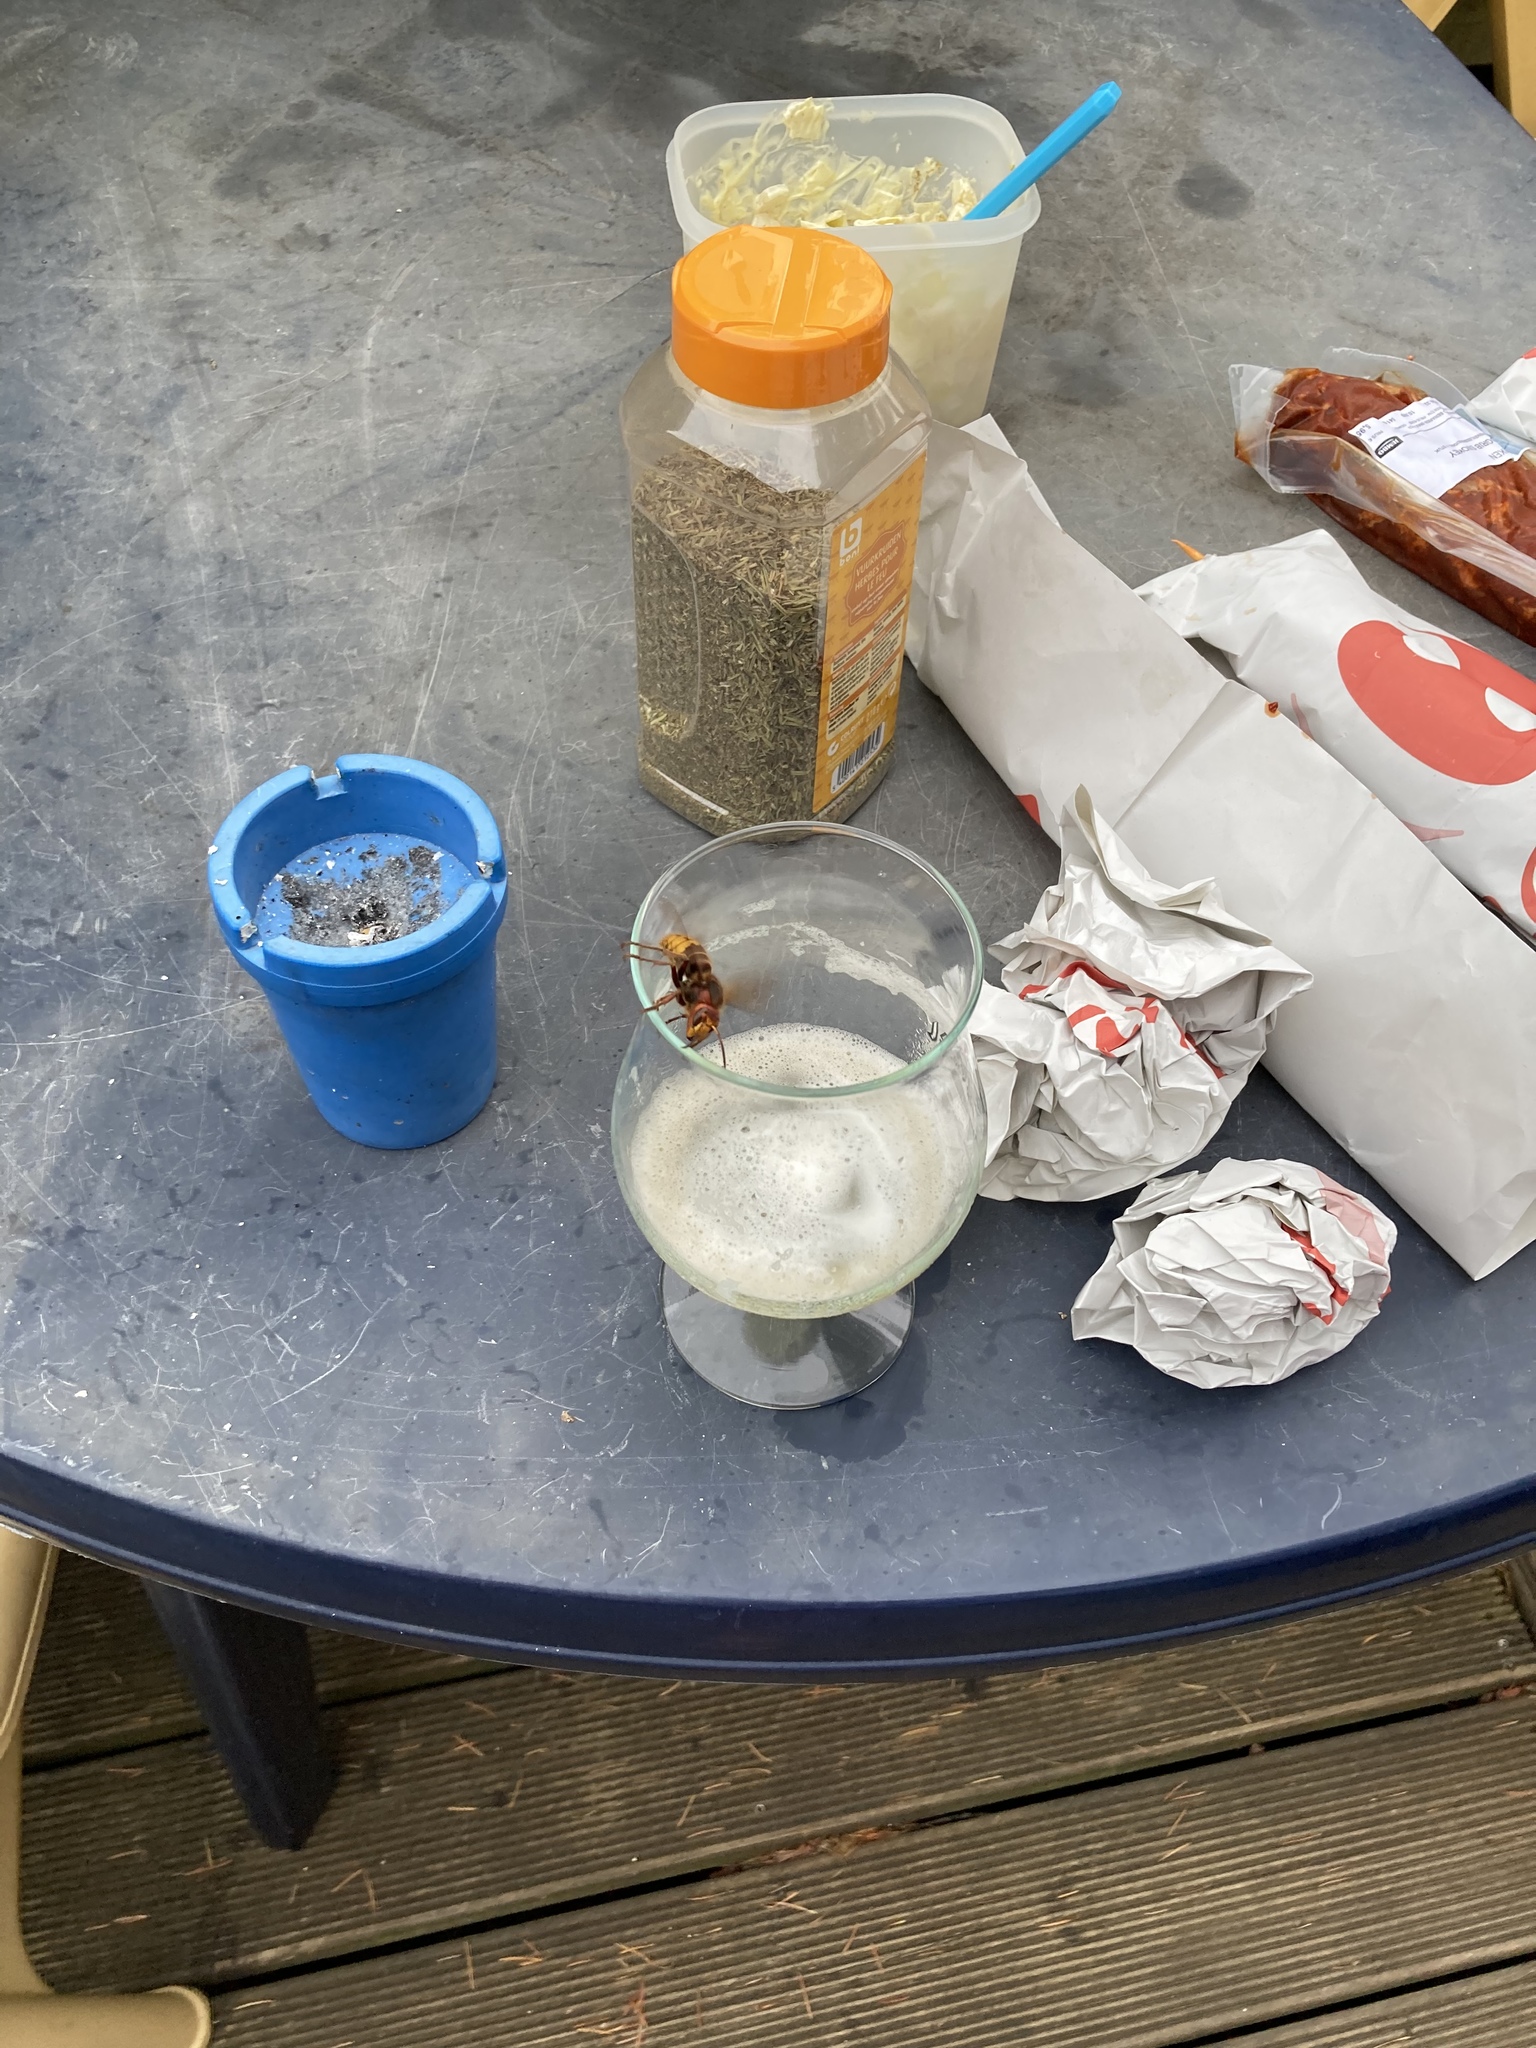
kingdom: Animalia
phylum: Arthropoda
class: Insecta
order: Hymenoptera
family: Vespidae
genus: Vespa
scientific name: Vespa crabro
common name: Hornet
